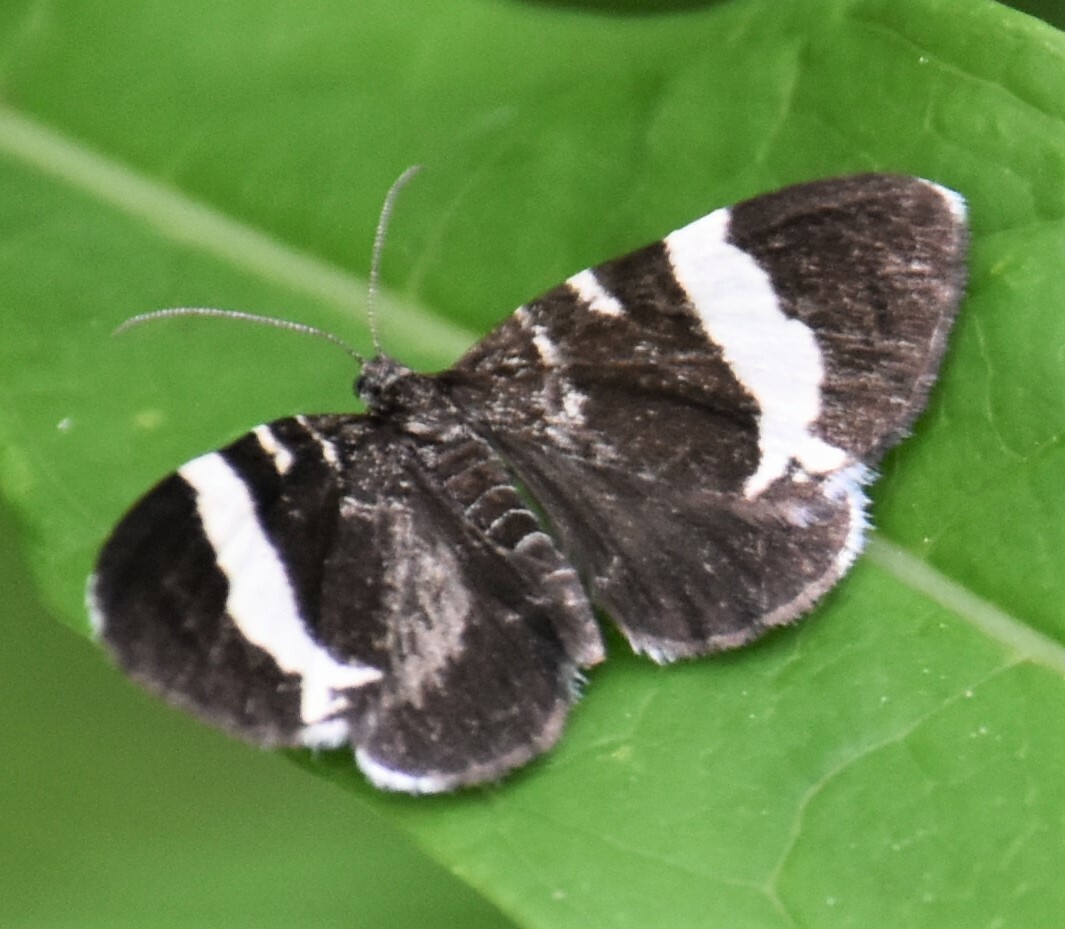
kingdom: Animalia
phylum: Arthropoda
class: Insecta
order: Lepidoptera
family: Geometridae
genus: Trichodezia
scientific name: Trichodezia albovittata
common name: White striped black
